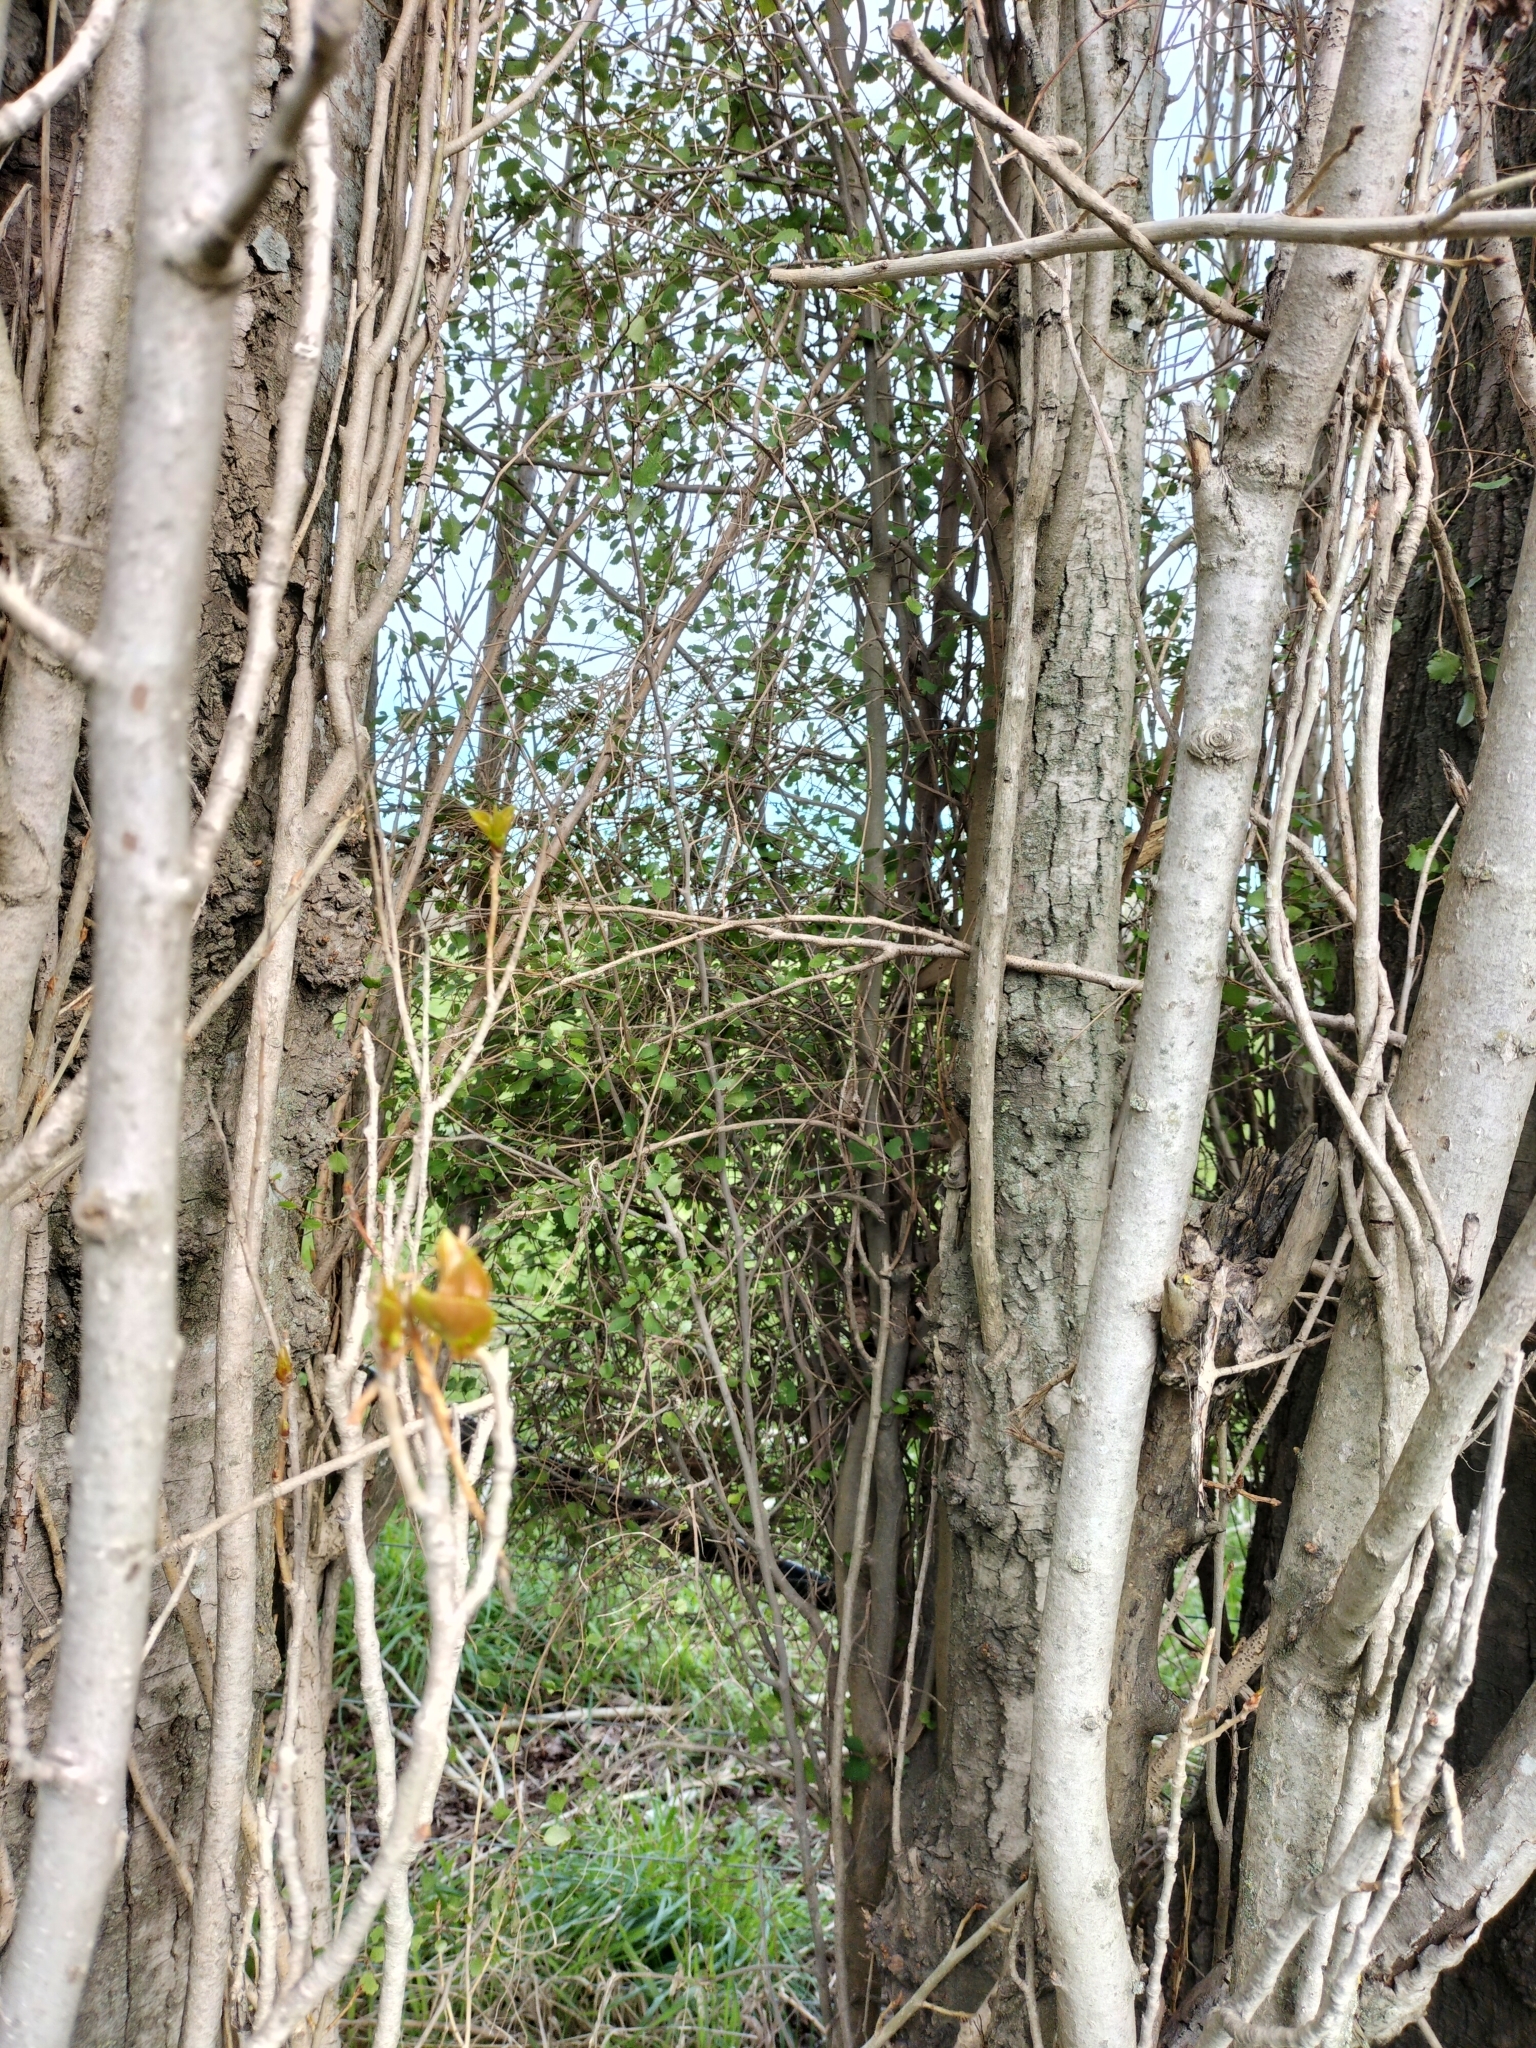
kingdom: Plantae
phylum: Tracheophyta
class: Magnoliopsida
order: Malvales
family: Malvaceae
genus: Plagianthus
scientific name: Plagianthus regius
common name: Manatu
